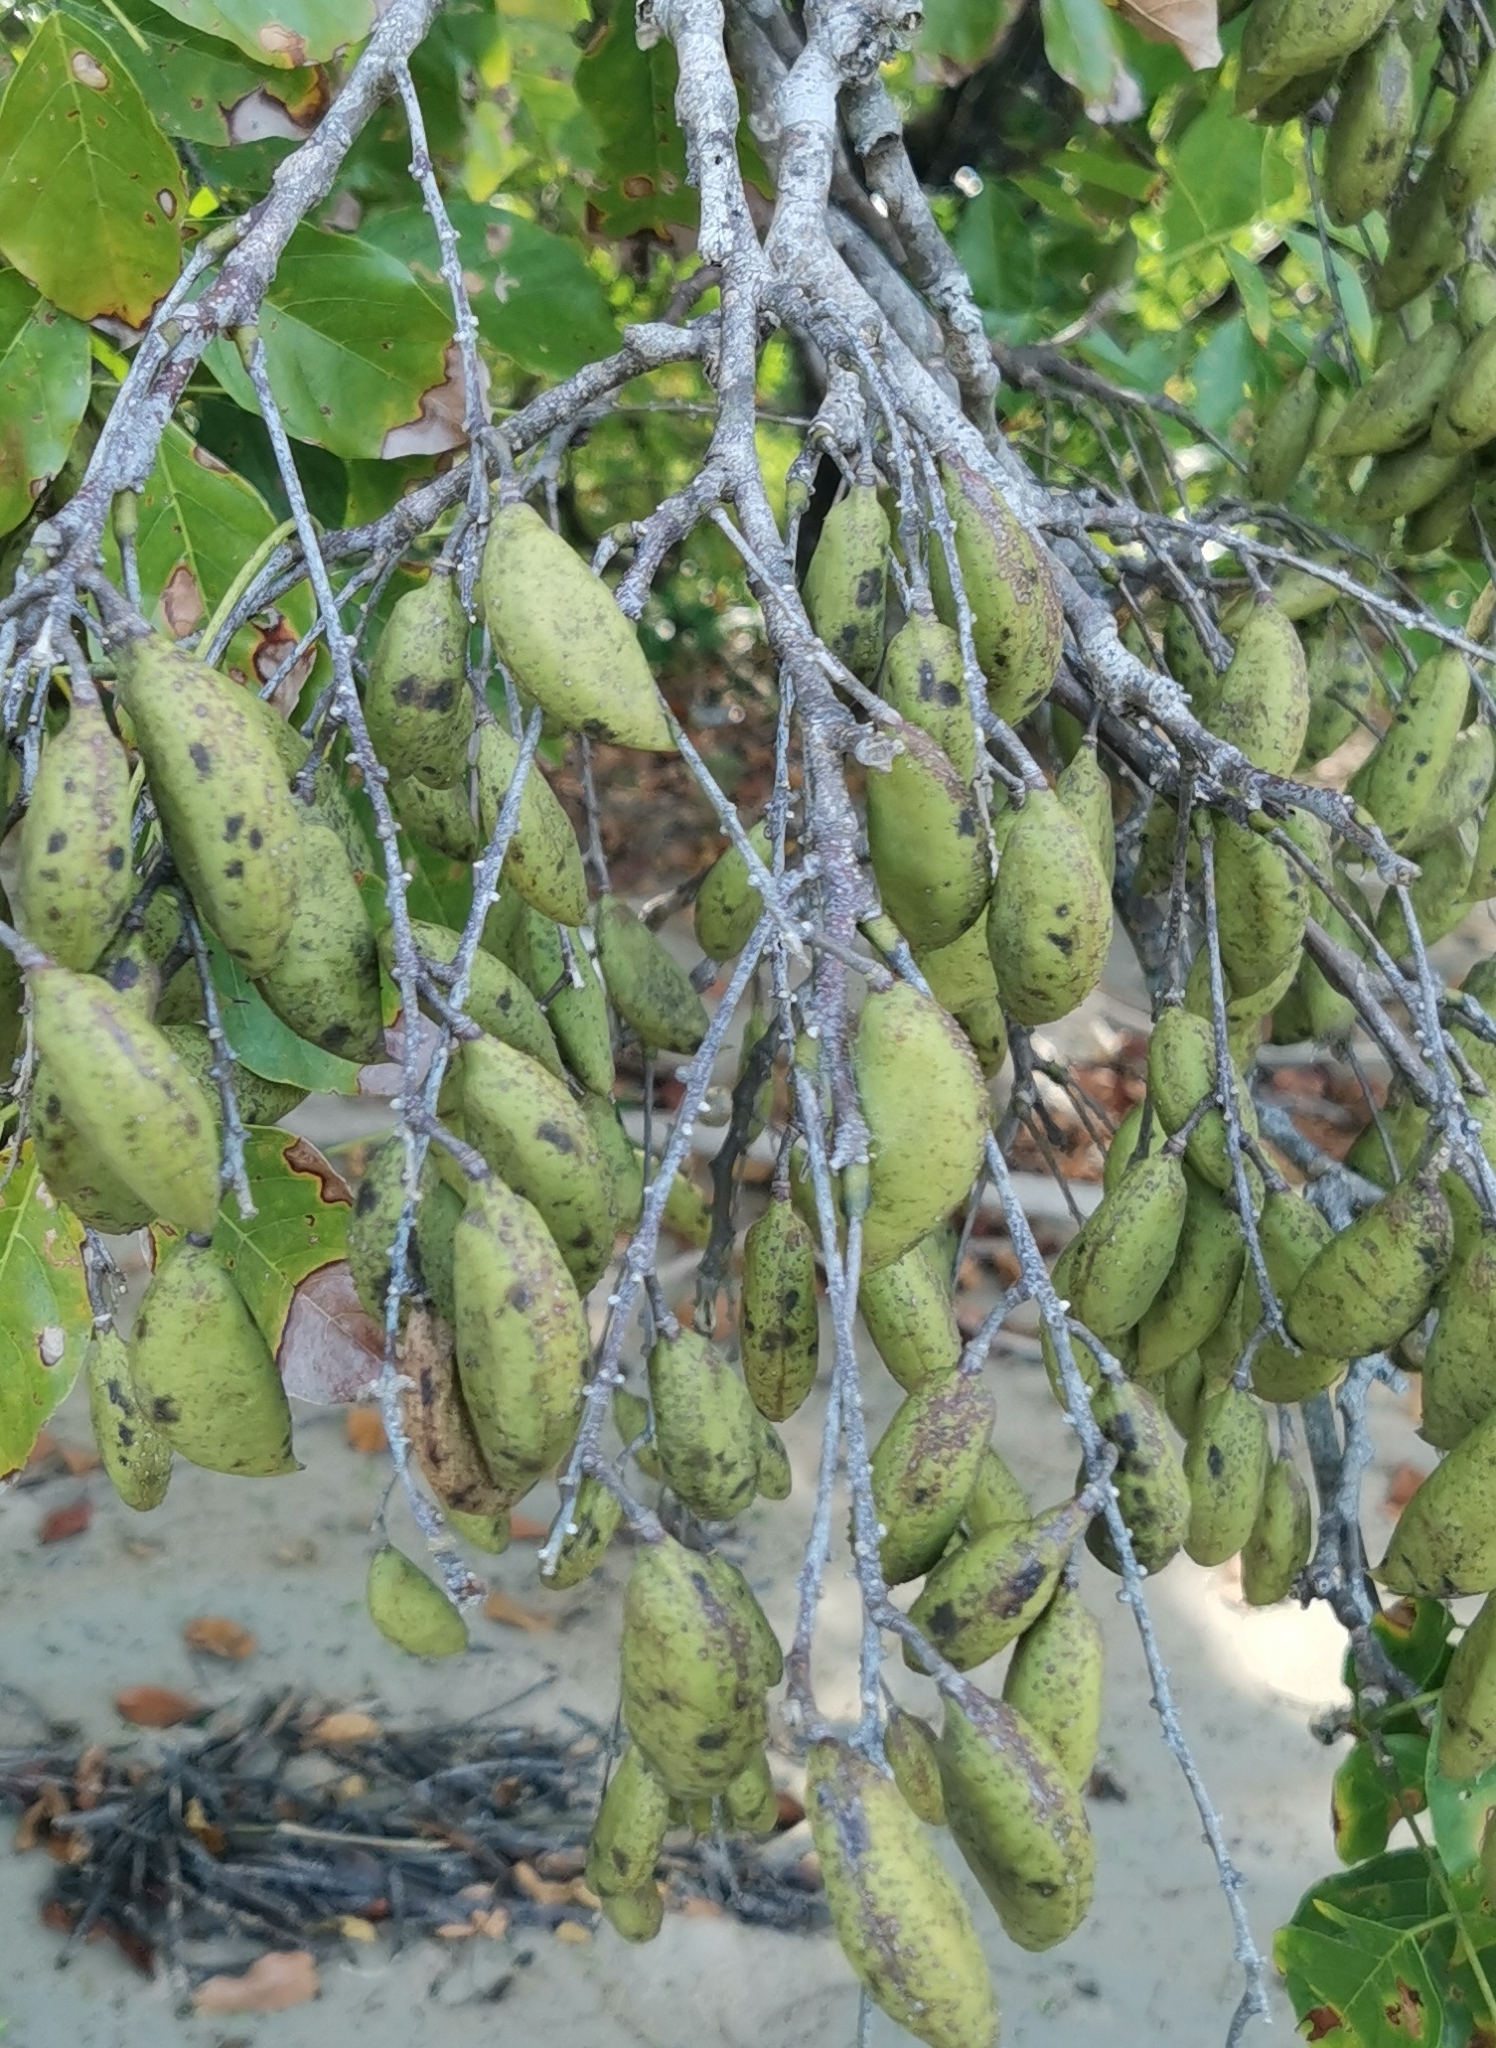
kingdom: Plantae
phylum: Tracheophyta
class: Magnoliopsida
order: Fabales
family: Fabaceae
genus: Pongamia
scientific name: Pongamia pinnata
